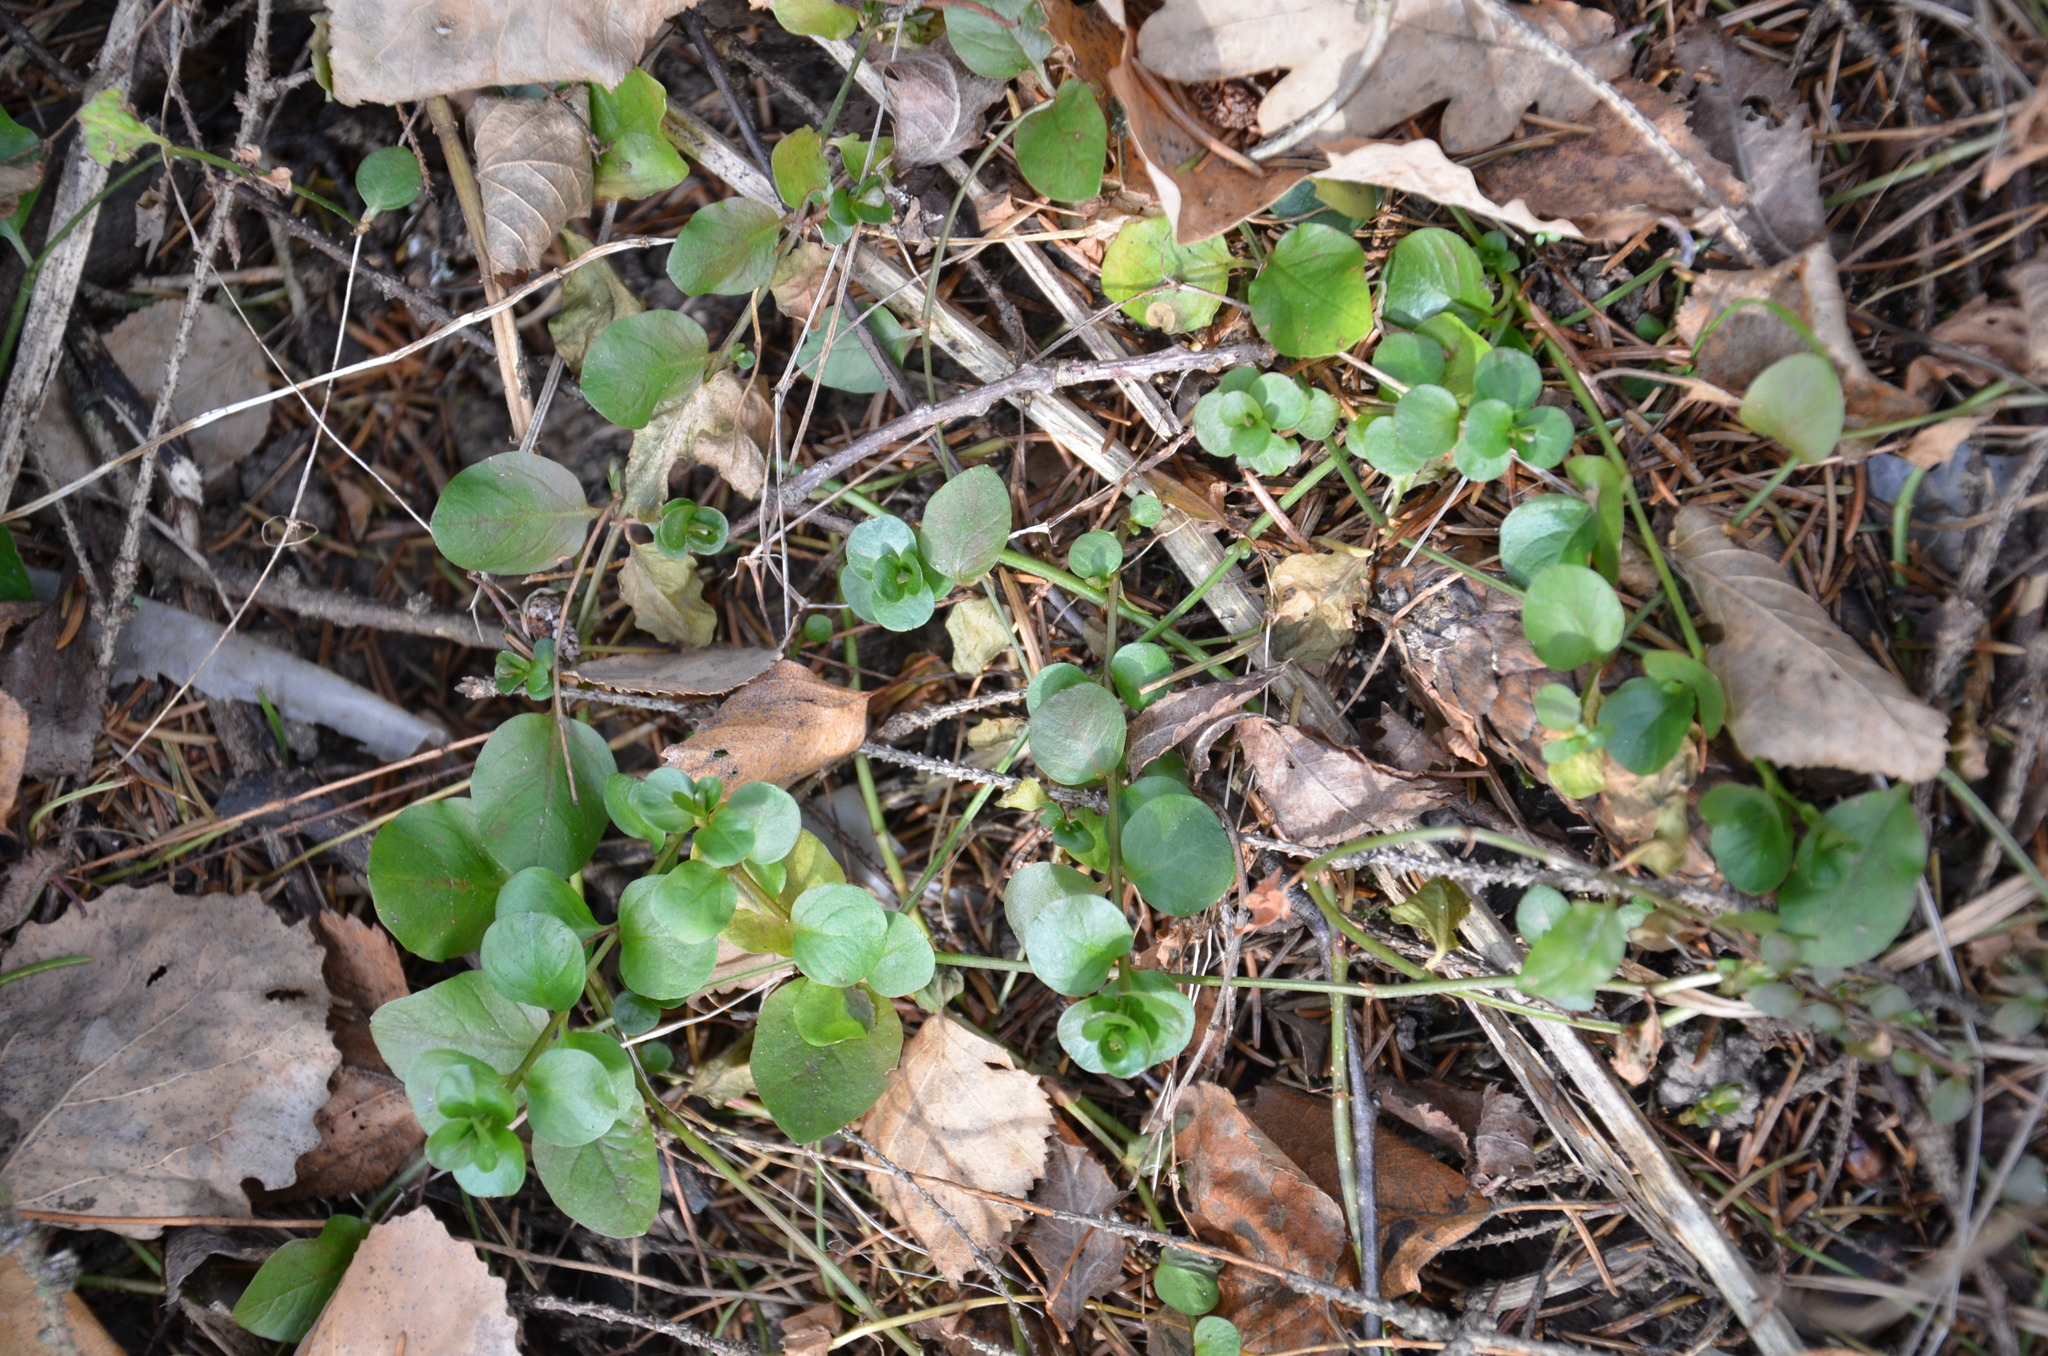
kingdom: Plantae
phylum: Tracheophyta
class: Magnoliopsida
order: Ericales
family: Primulaceae
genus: Lysimachia
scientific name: Lysimachia nummularia
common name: Moneywort
